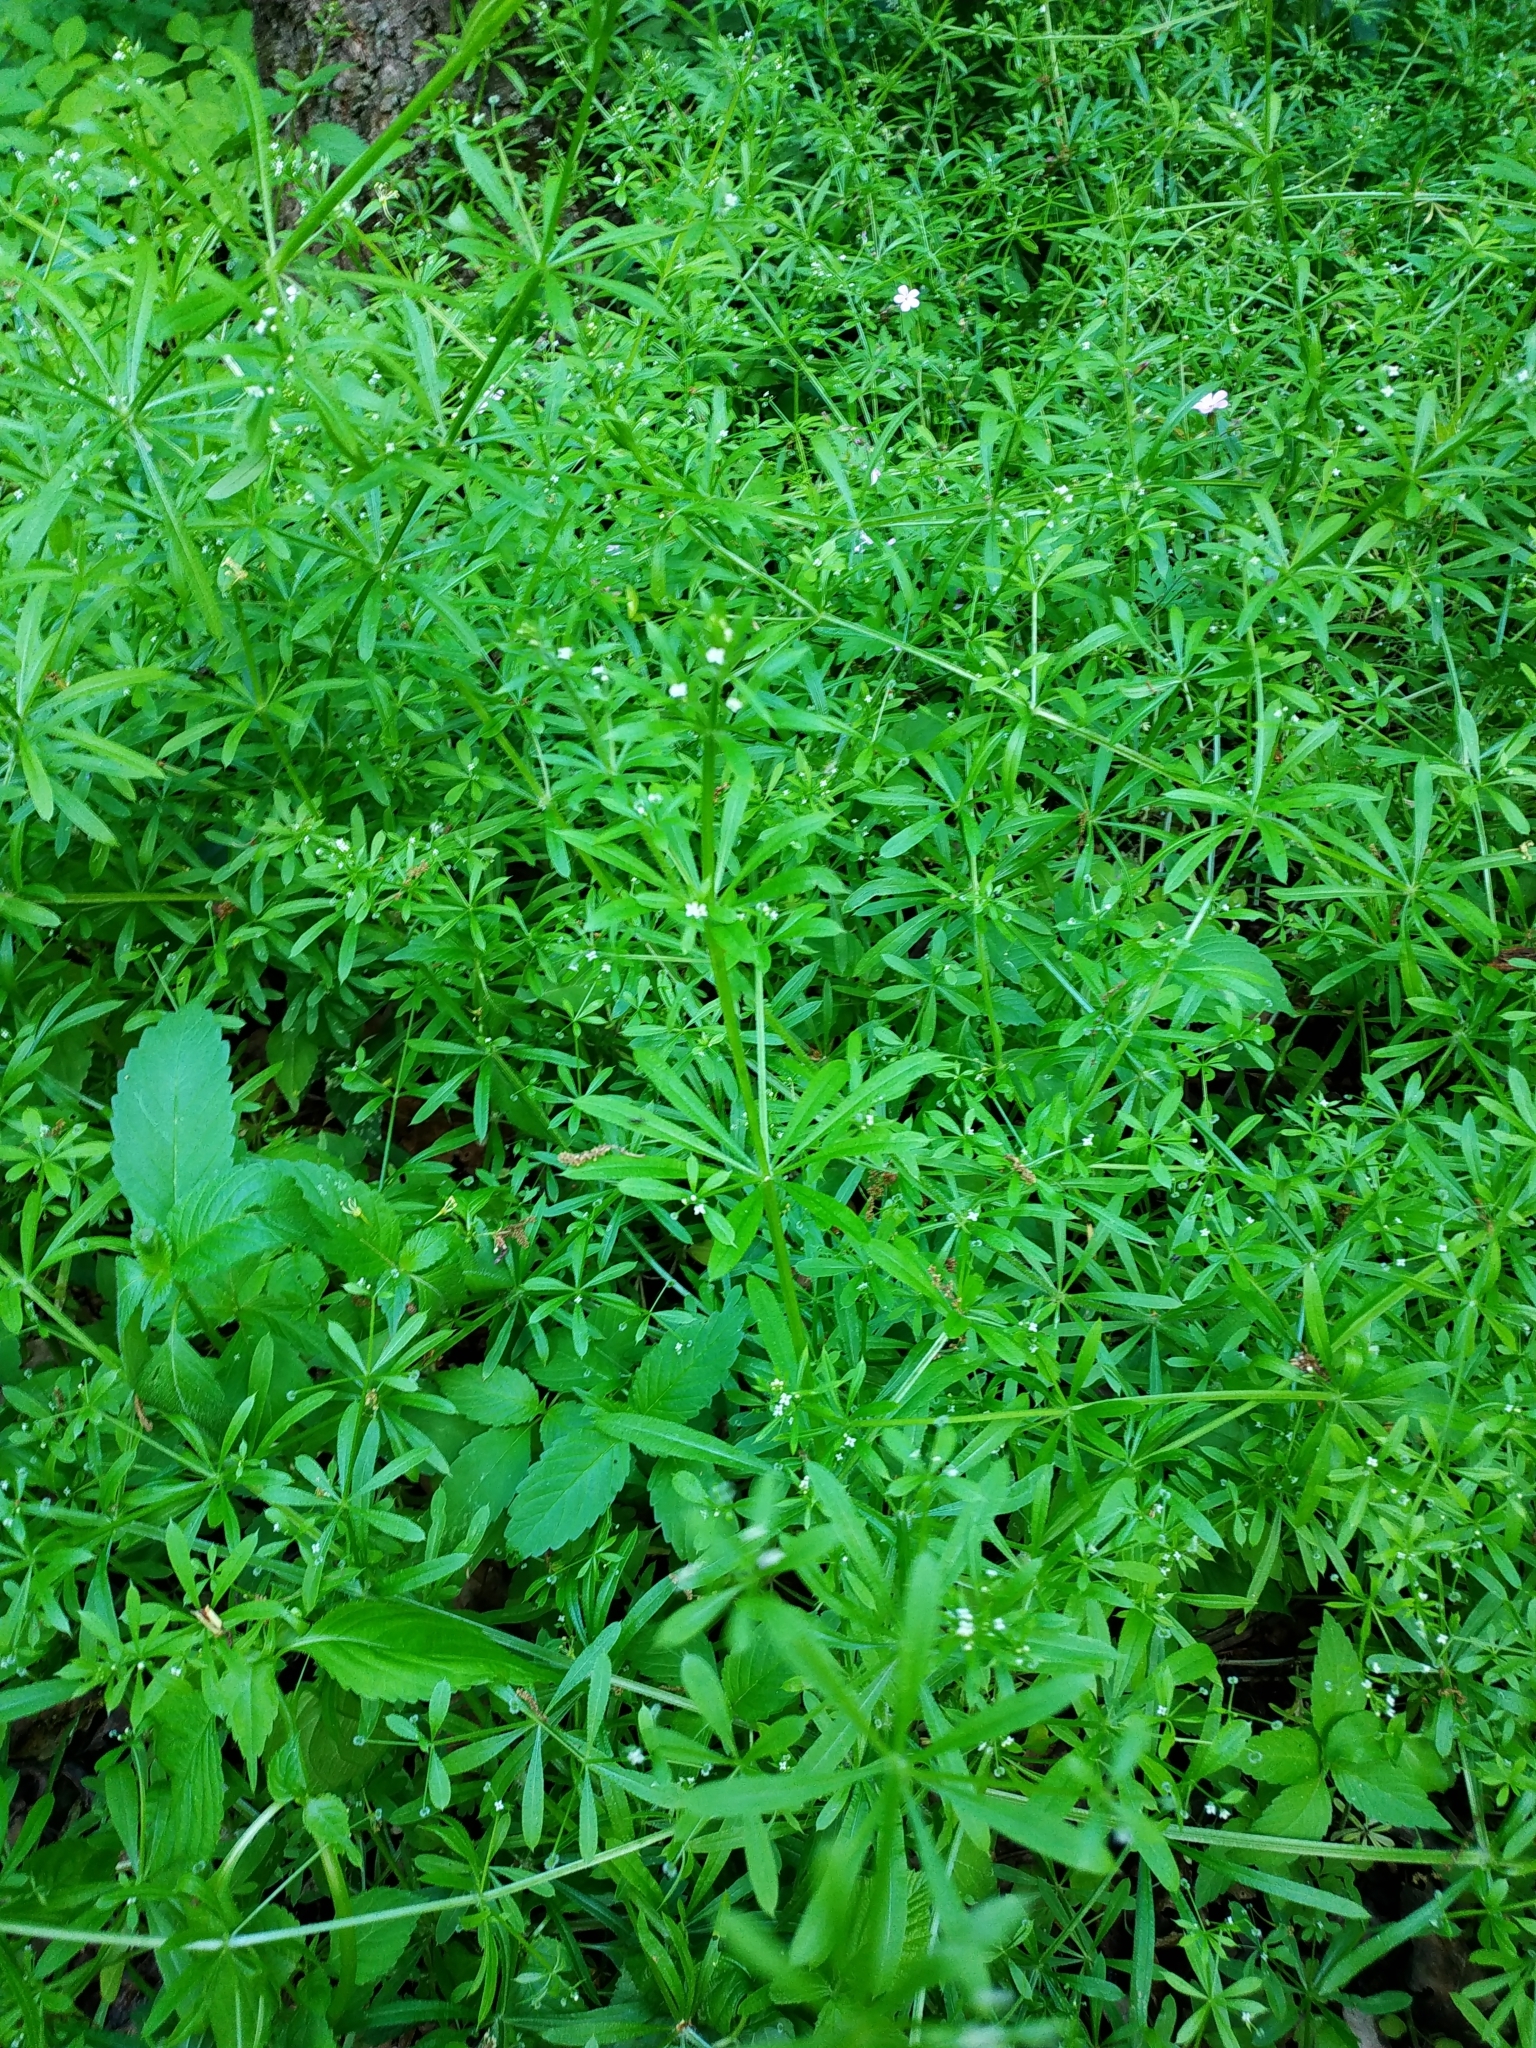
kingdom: Plantae
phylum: Tracheophyta
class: Magnoliopsida
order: Gentianales
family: Rubiaceae
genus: Galium
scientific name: Galium aparine
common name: Cleavers
